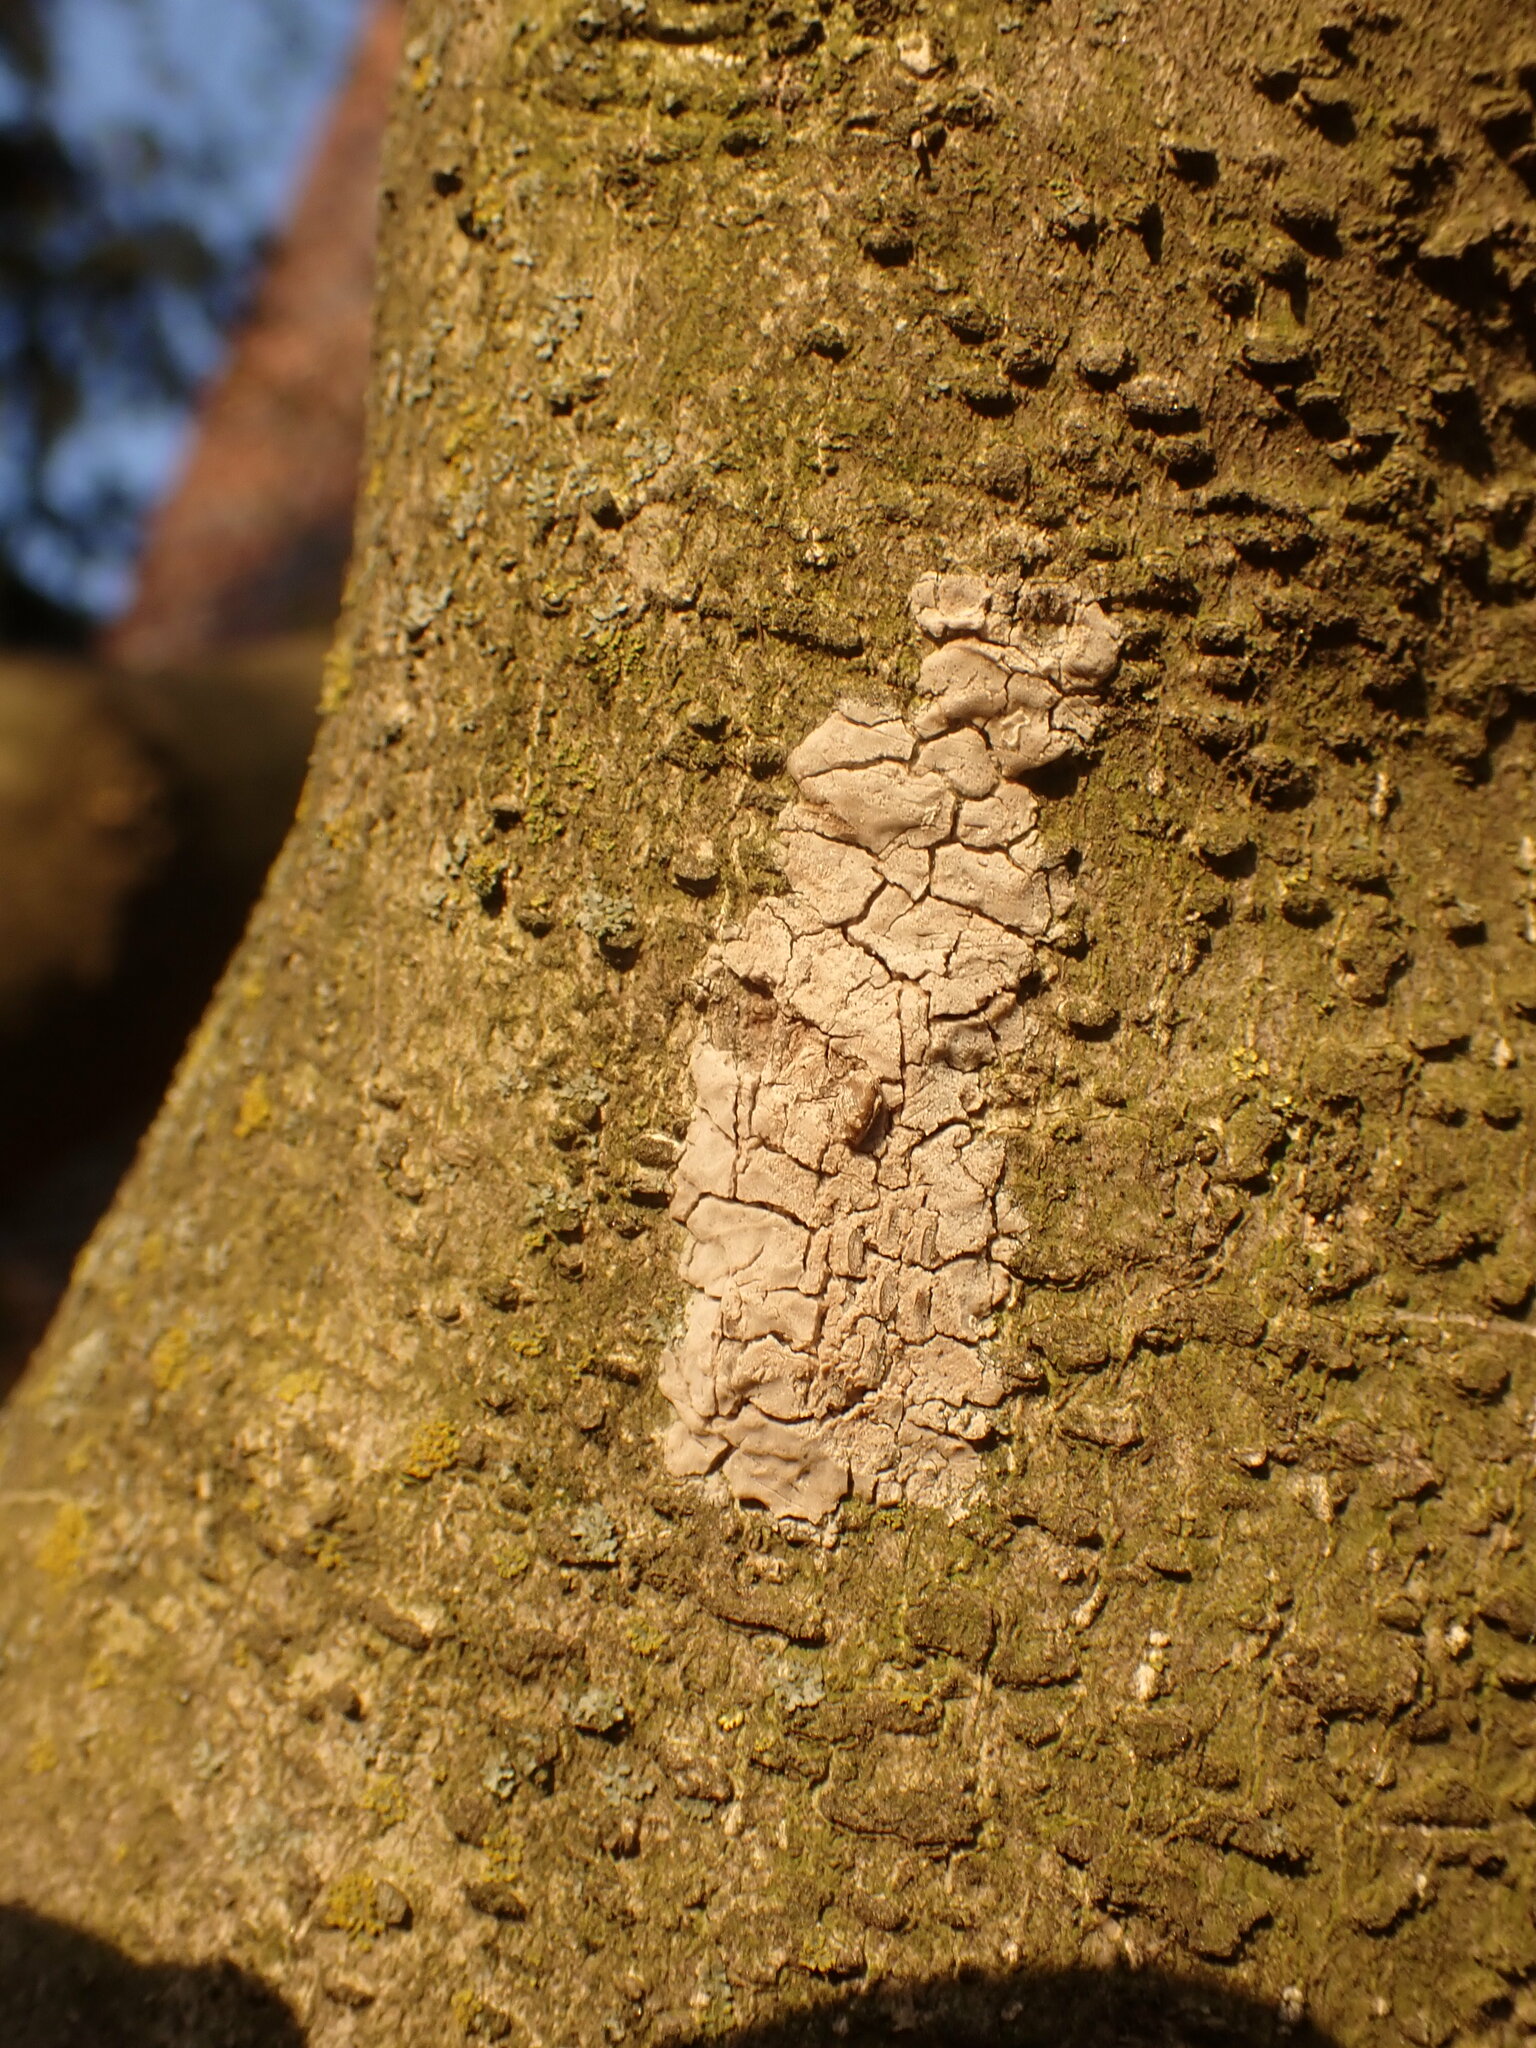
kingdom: Animalia
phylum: Arthropoda
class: Insecta
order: Hemiptera
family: Fulgoridae
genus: Lycorma
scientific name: Lycorma delicatula
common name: Spotted lanternfly
